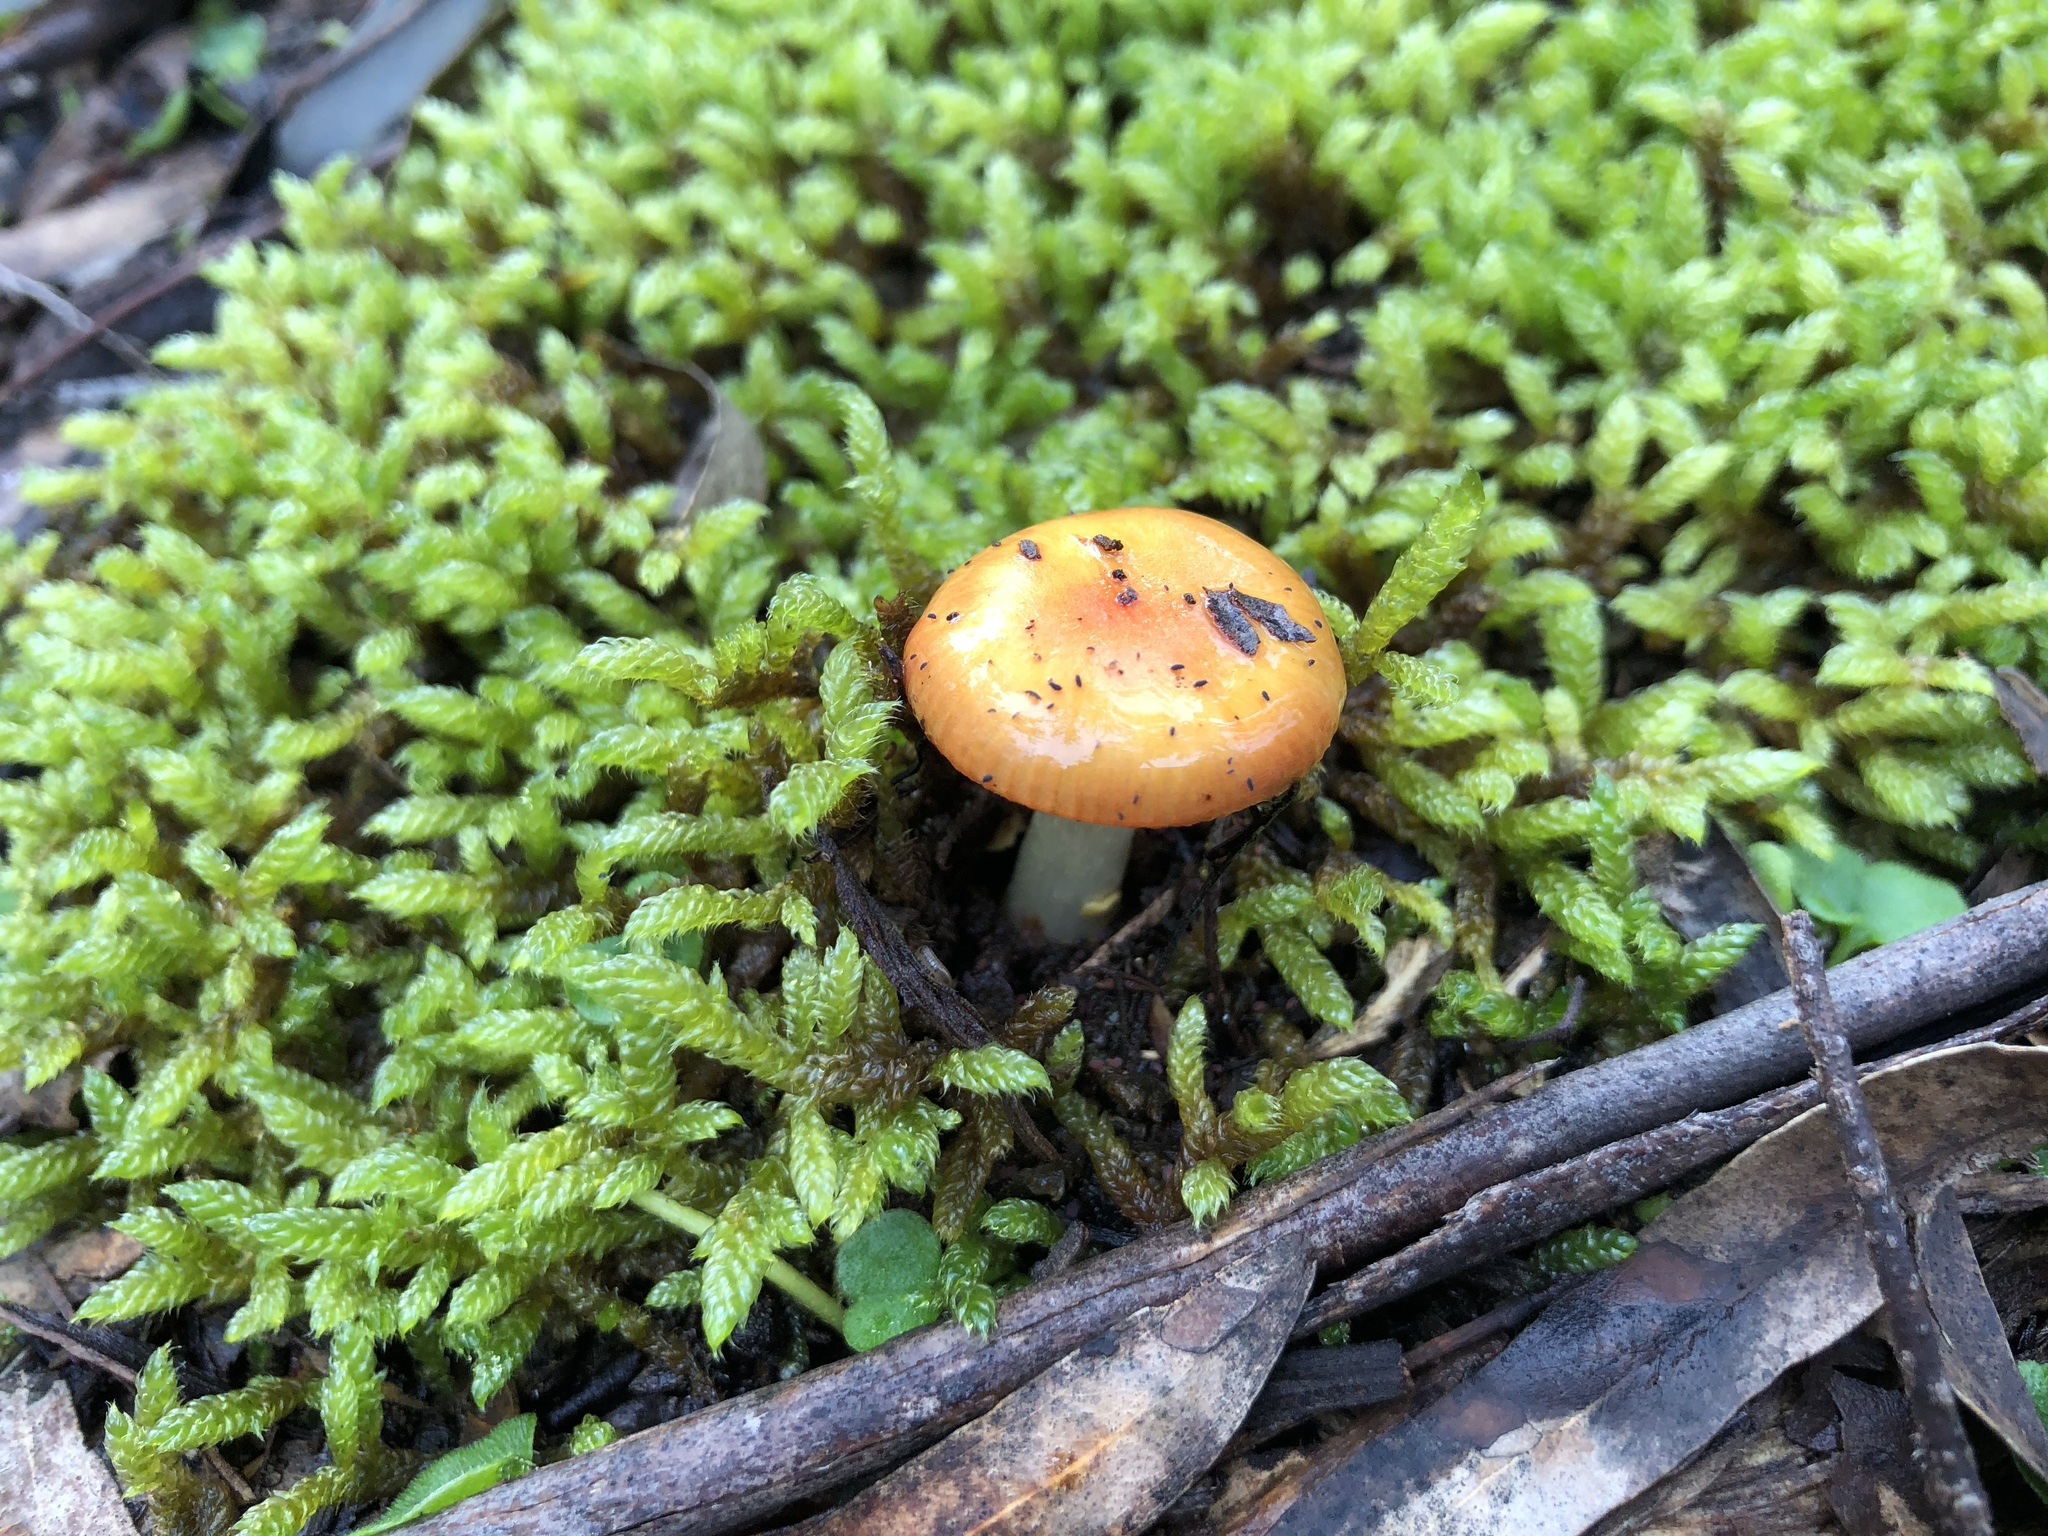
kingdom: Fungi
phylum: Basidiomycota
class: Agaricomycetes
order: Agaricales
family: Amanitaceae
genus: Amanita
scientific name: Amanita xanthocephala
